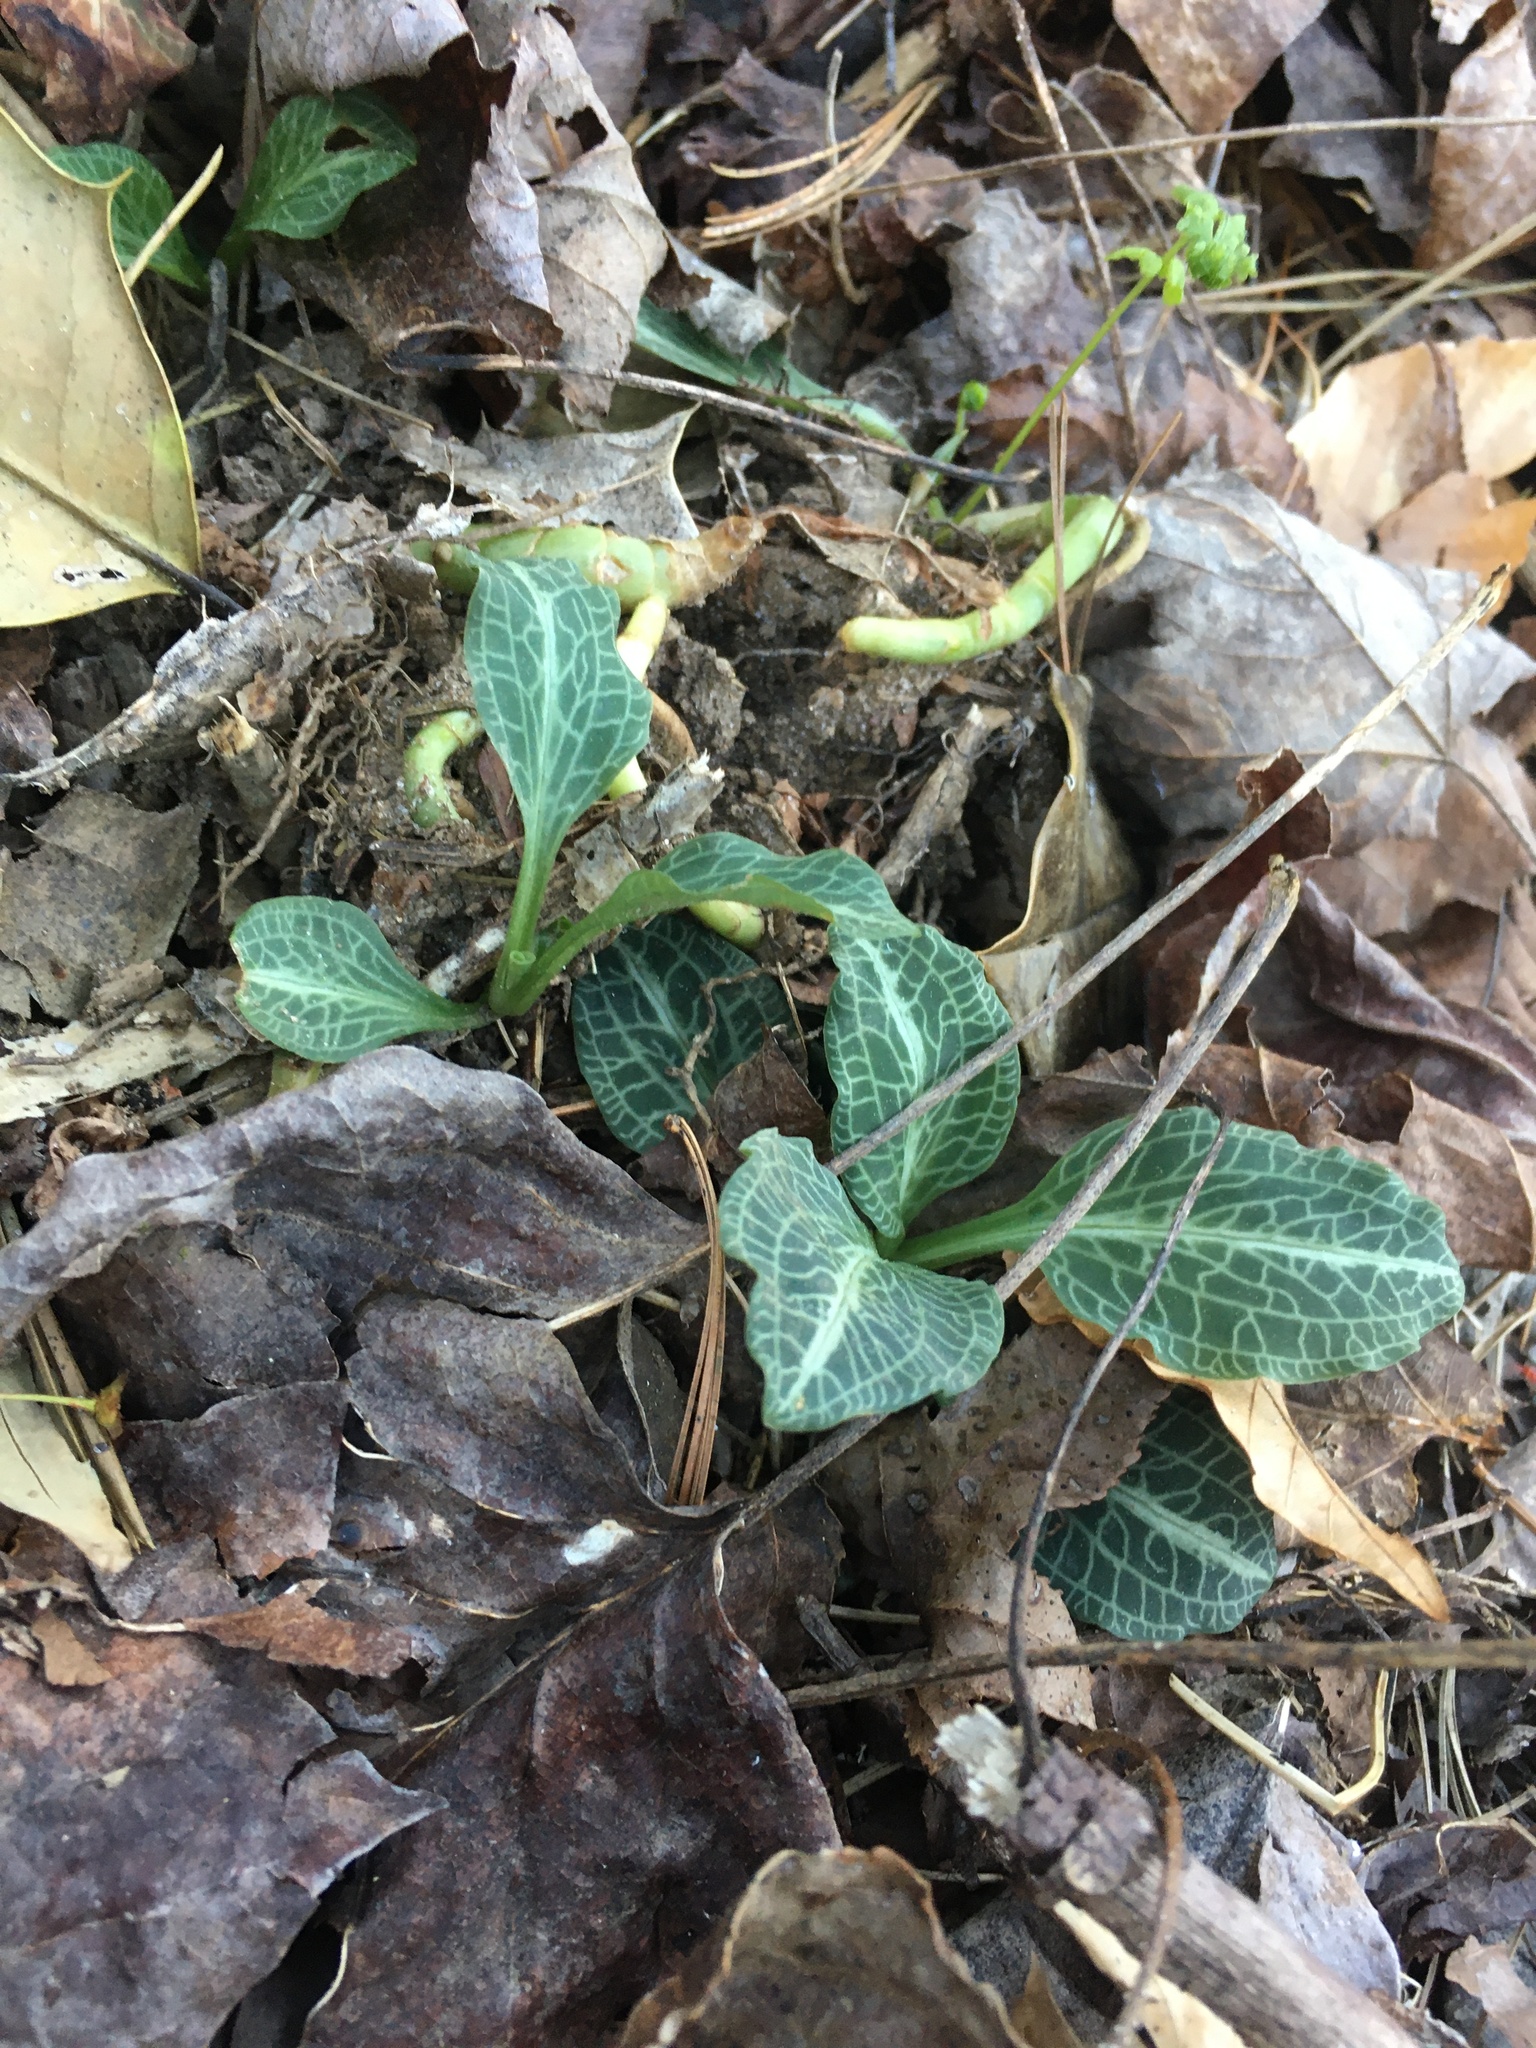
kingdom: Plantae
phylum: Tracheophyta
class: Liliopsida
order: Asparagales
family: Orchidaceae
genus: Goodyera
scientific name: Goodyera pubescens
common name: Downy rattlesnake-plantain
